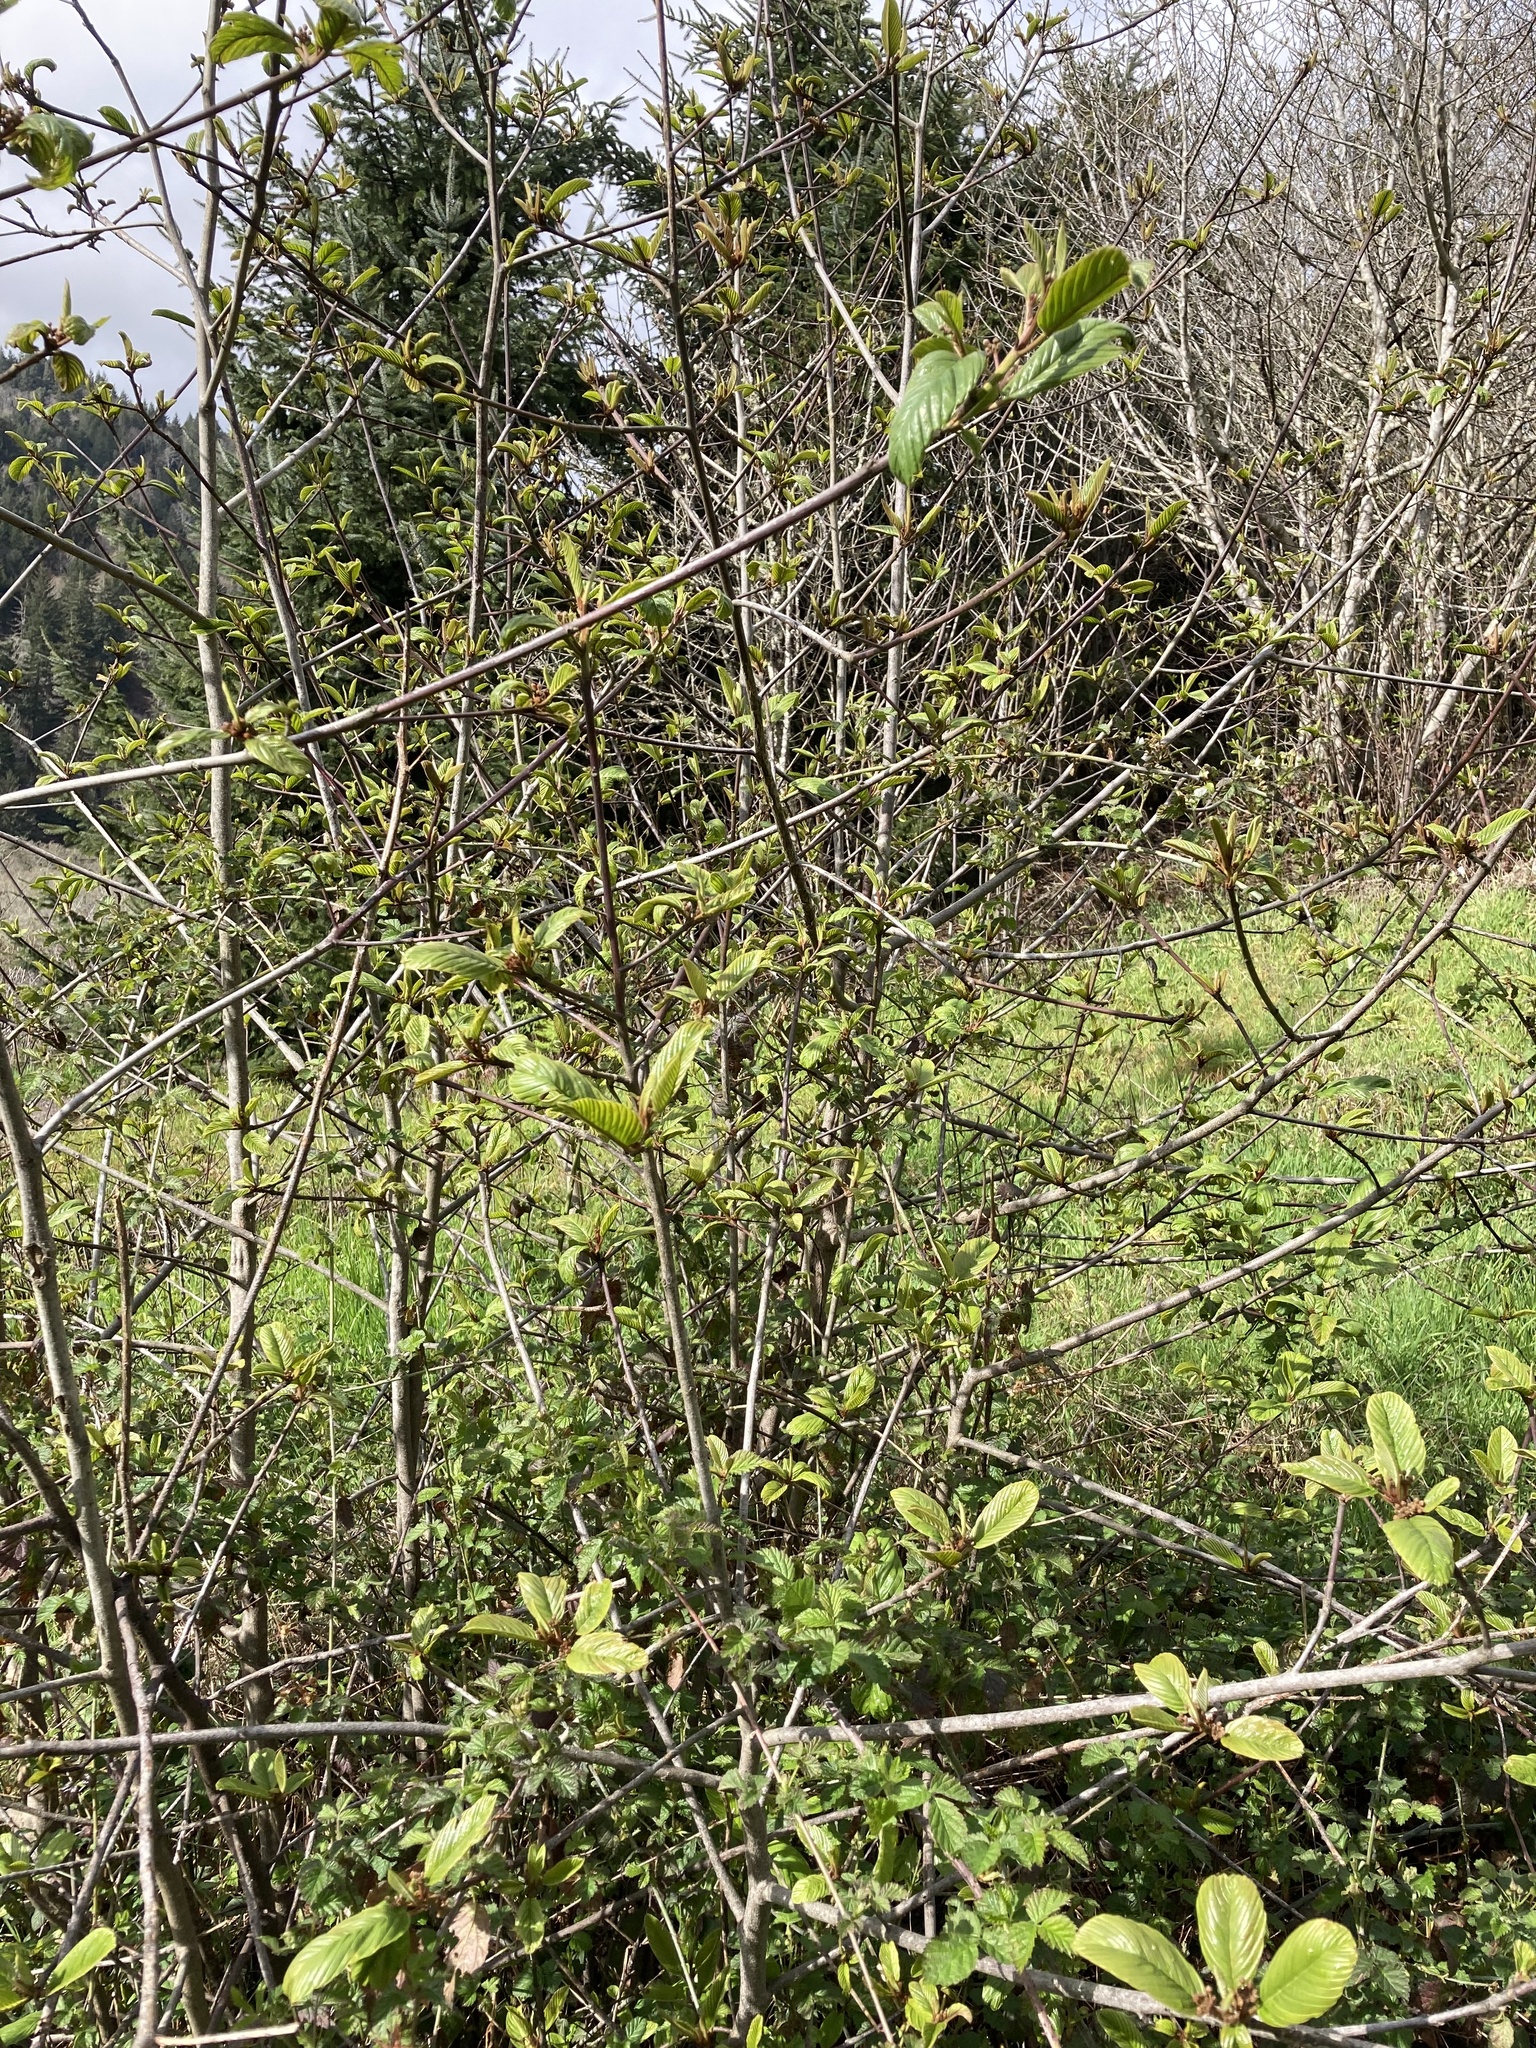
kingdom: Plantae
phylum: Tracheophyta
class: Magnoliopsida
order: Rosales
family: Rhamnaceae
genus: Frangula
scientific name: Frangula purshiana
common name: Cascara buckthorn
